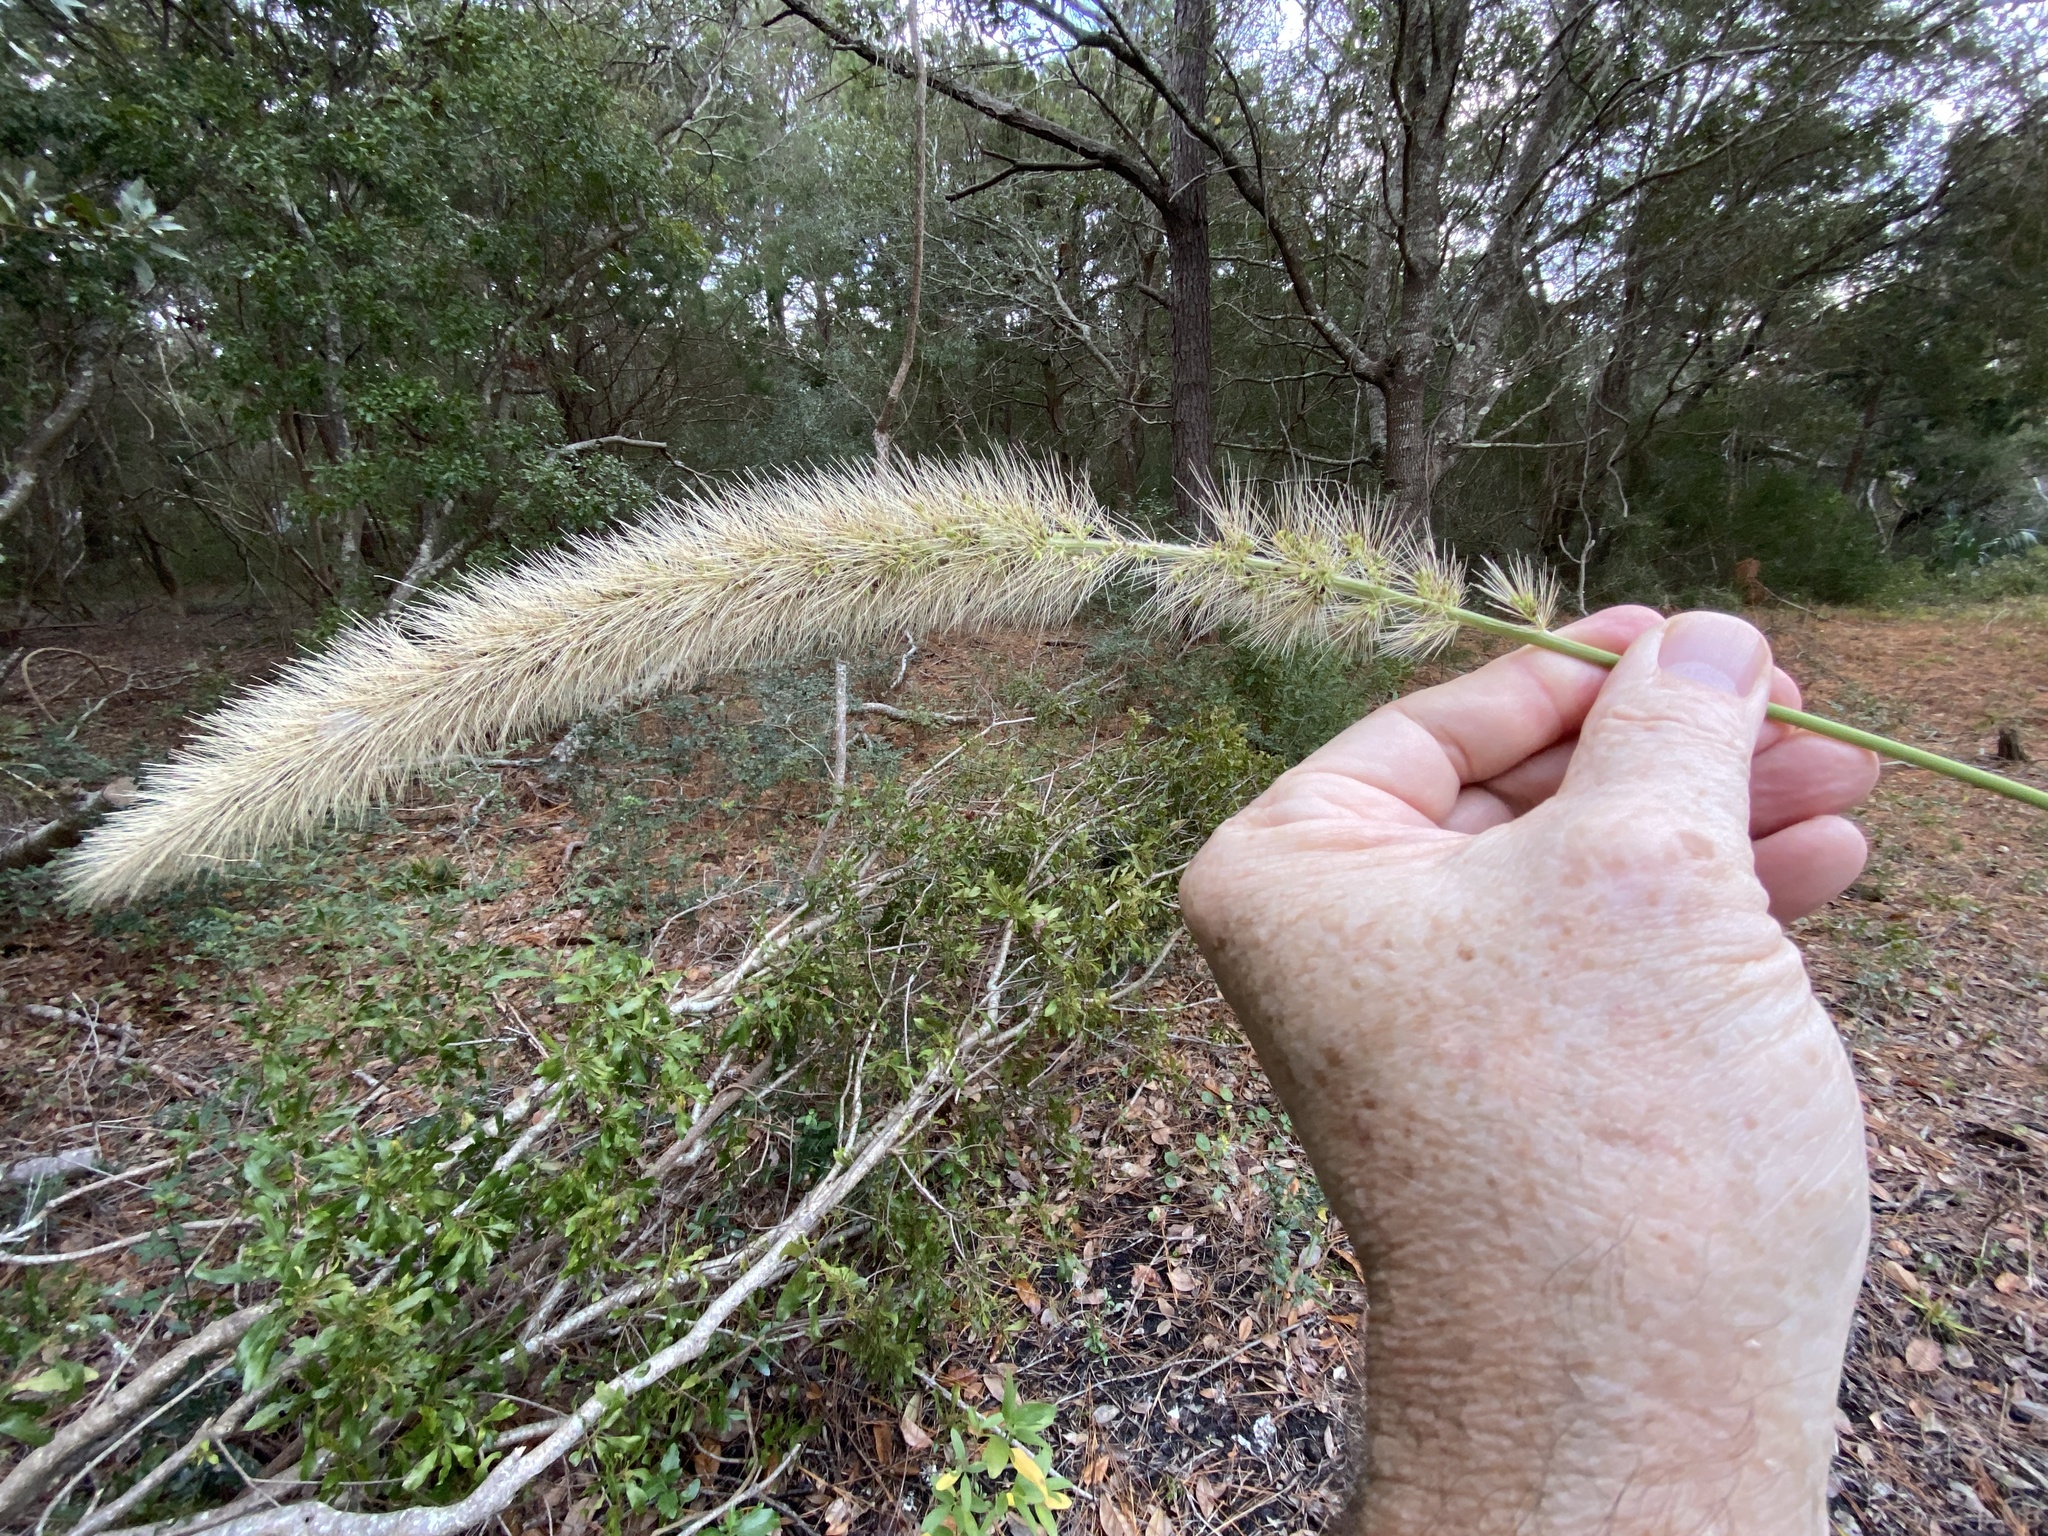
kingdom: Plantae
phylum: Tracheophyta
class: Liliopsida
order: Poales
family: Poaceae
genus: Setaria
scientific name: Setaria magna
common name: Giant bristle grass
